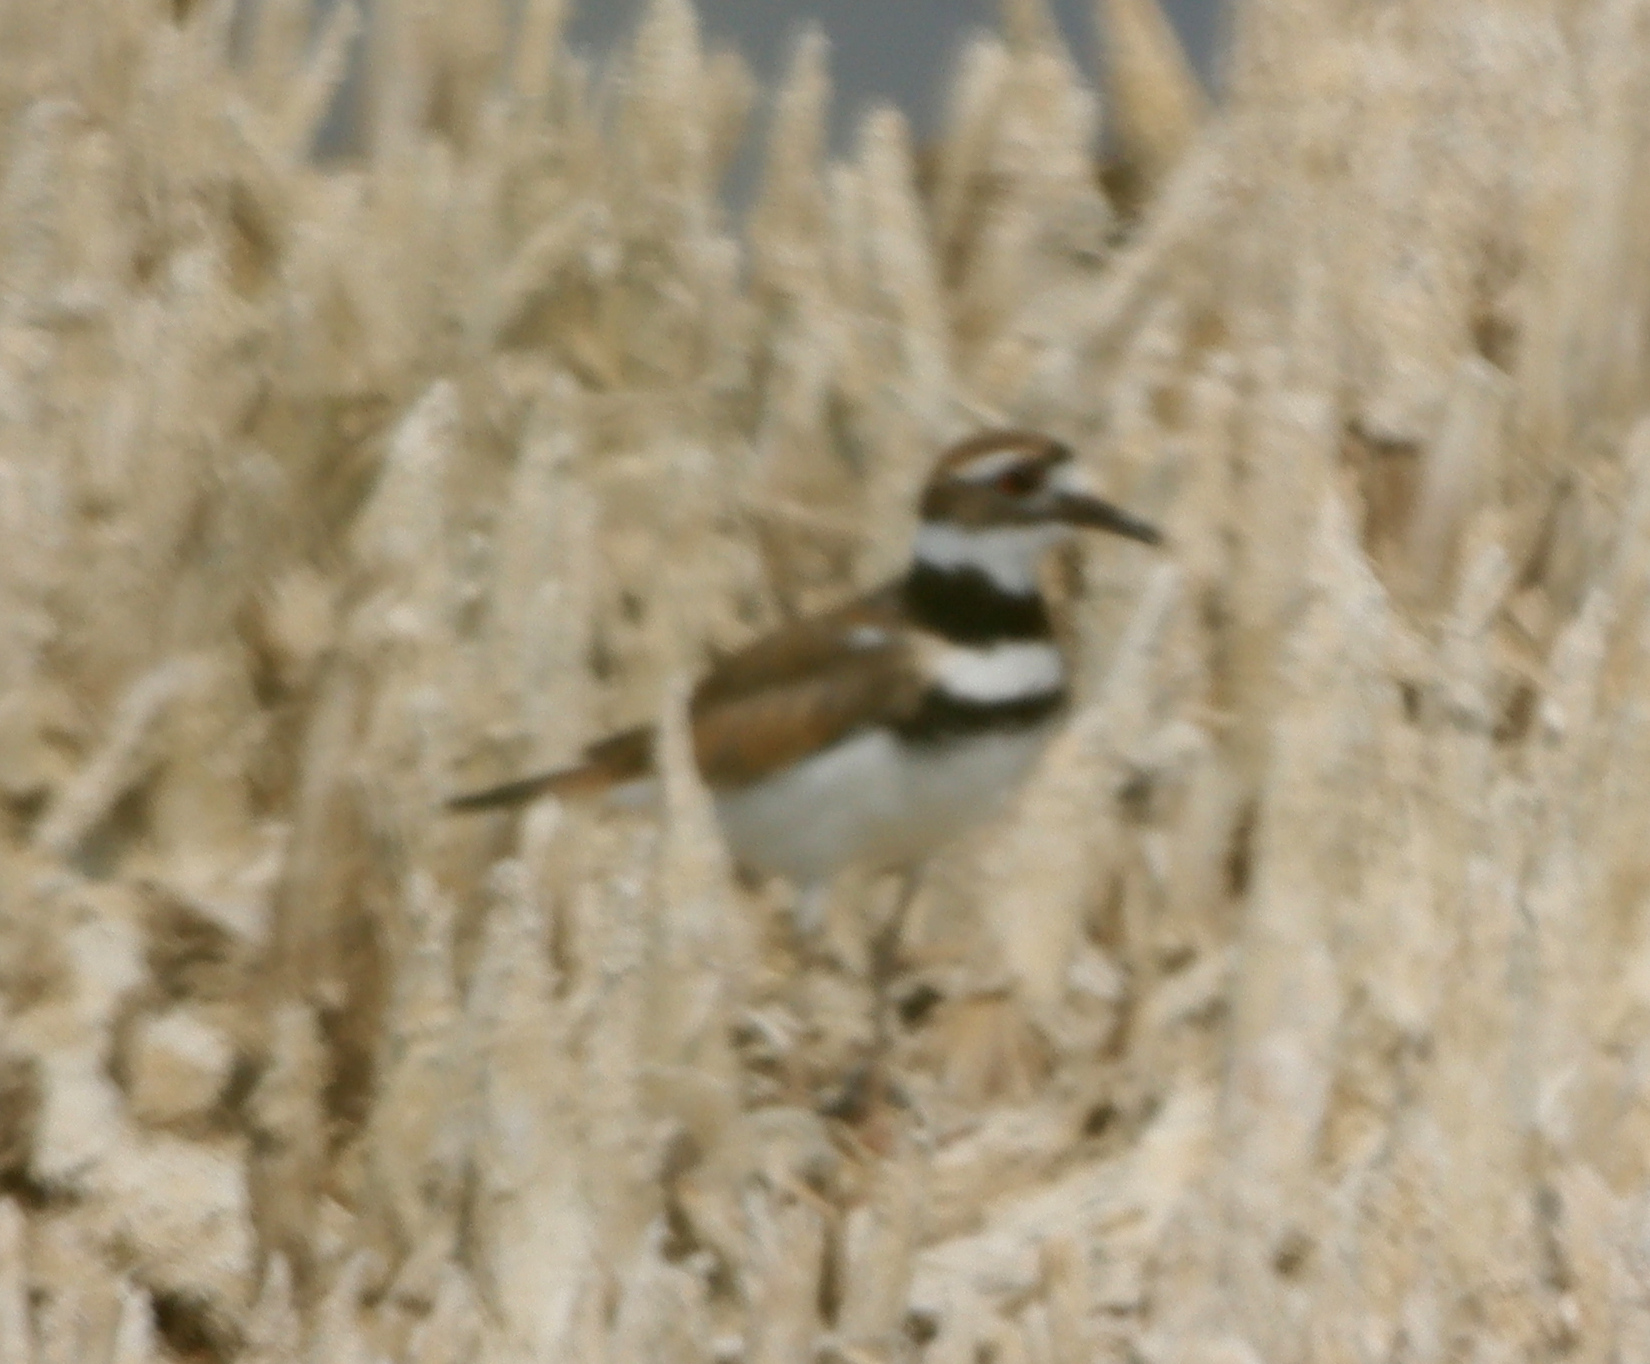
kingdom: Animalia
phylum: Chordata
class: Aves
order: Charadriiformes
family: Charadriidae
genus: Charadrius
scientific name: Charadrius vociferus
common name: Killdeer
